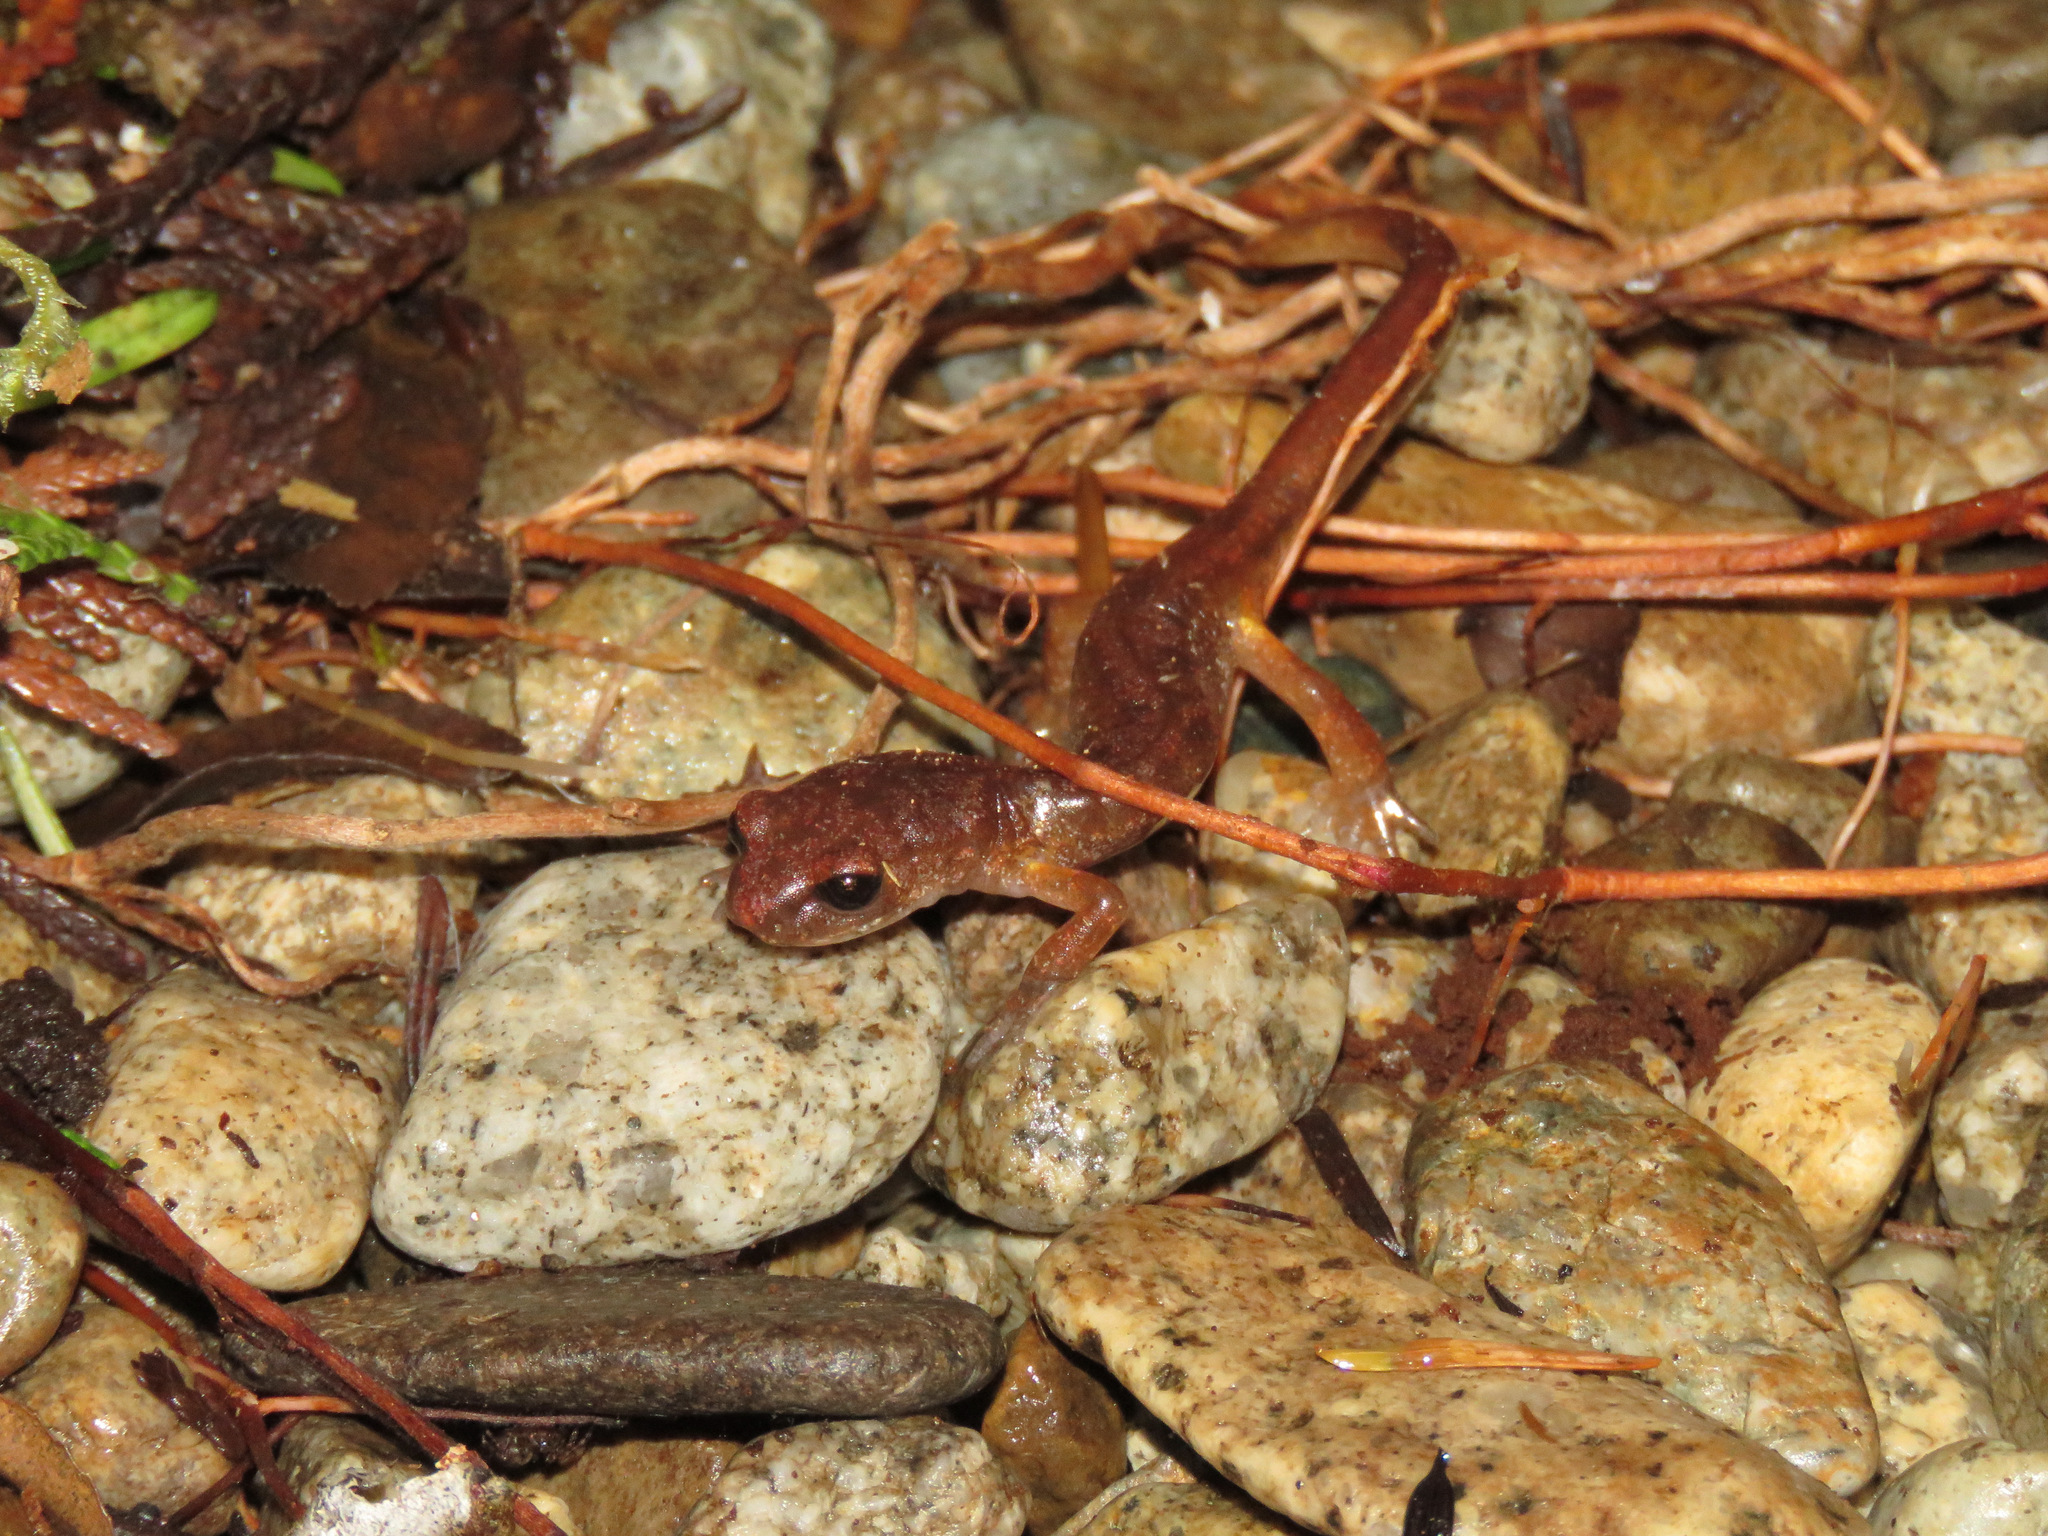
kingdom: Animalia
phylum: Chordata
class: Amphibia
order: Caudata
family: Plethodontidae
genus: Ensatina
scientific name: Ensatina eschscholtzii
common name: Ensatina
